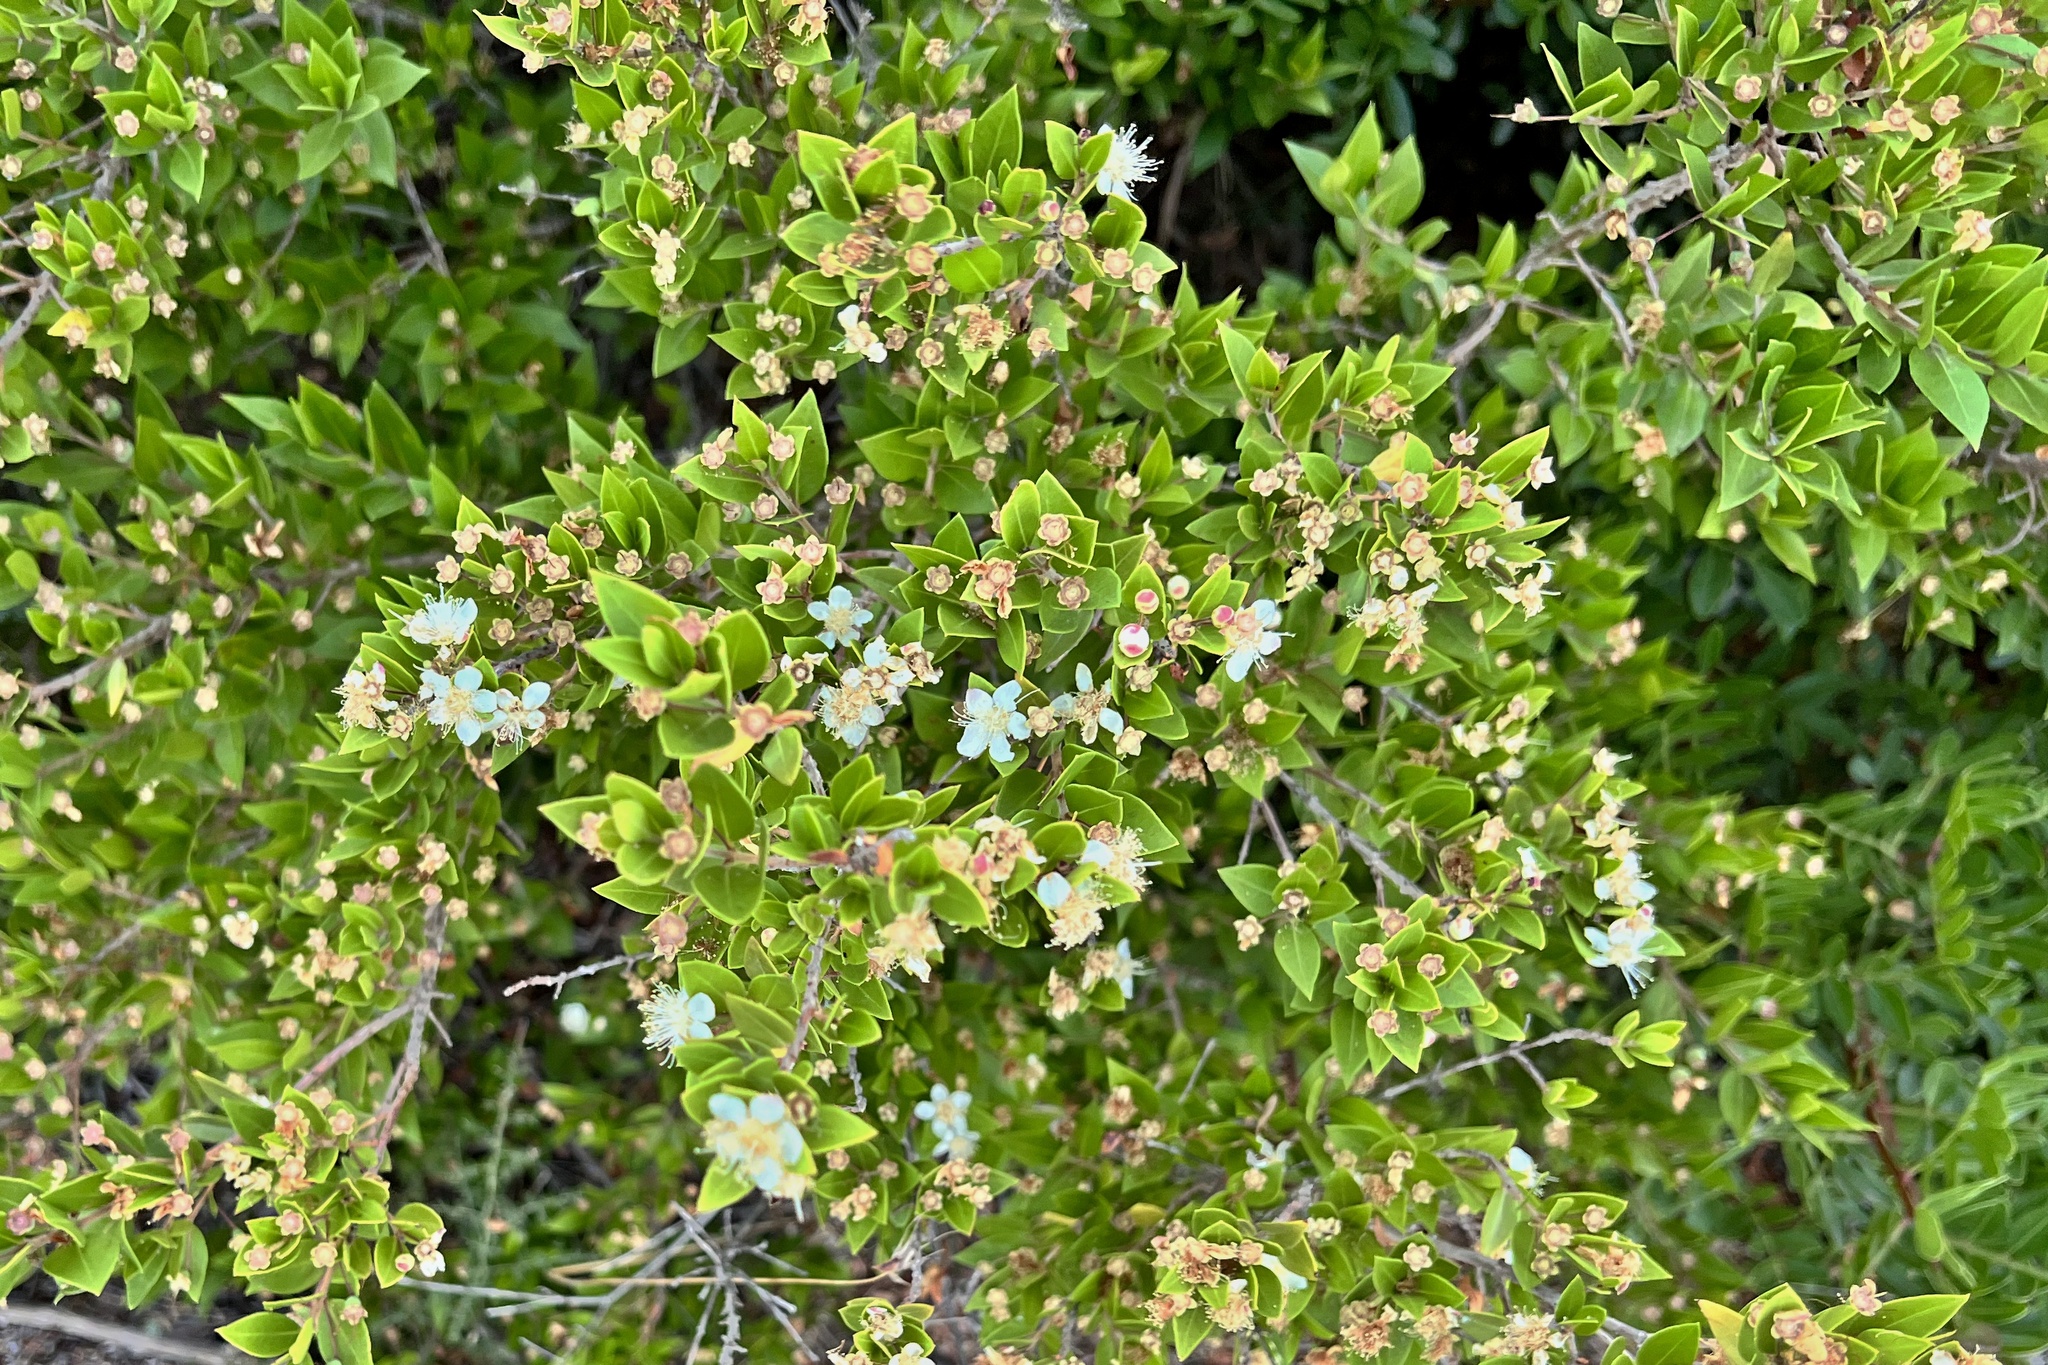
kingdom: Plantae
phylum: Tracheophyta
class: Magnoliopsida
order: Myrtales
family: Myrtaceae
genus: Myrtus
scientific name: Myrtus communis
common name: Myrtle
